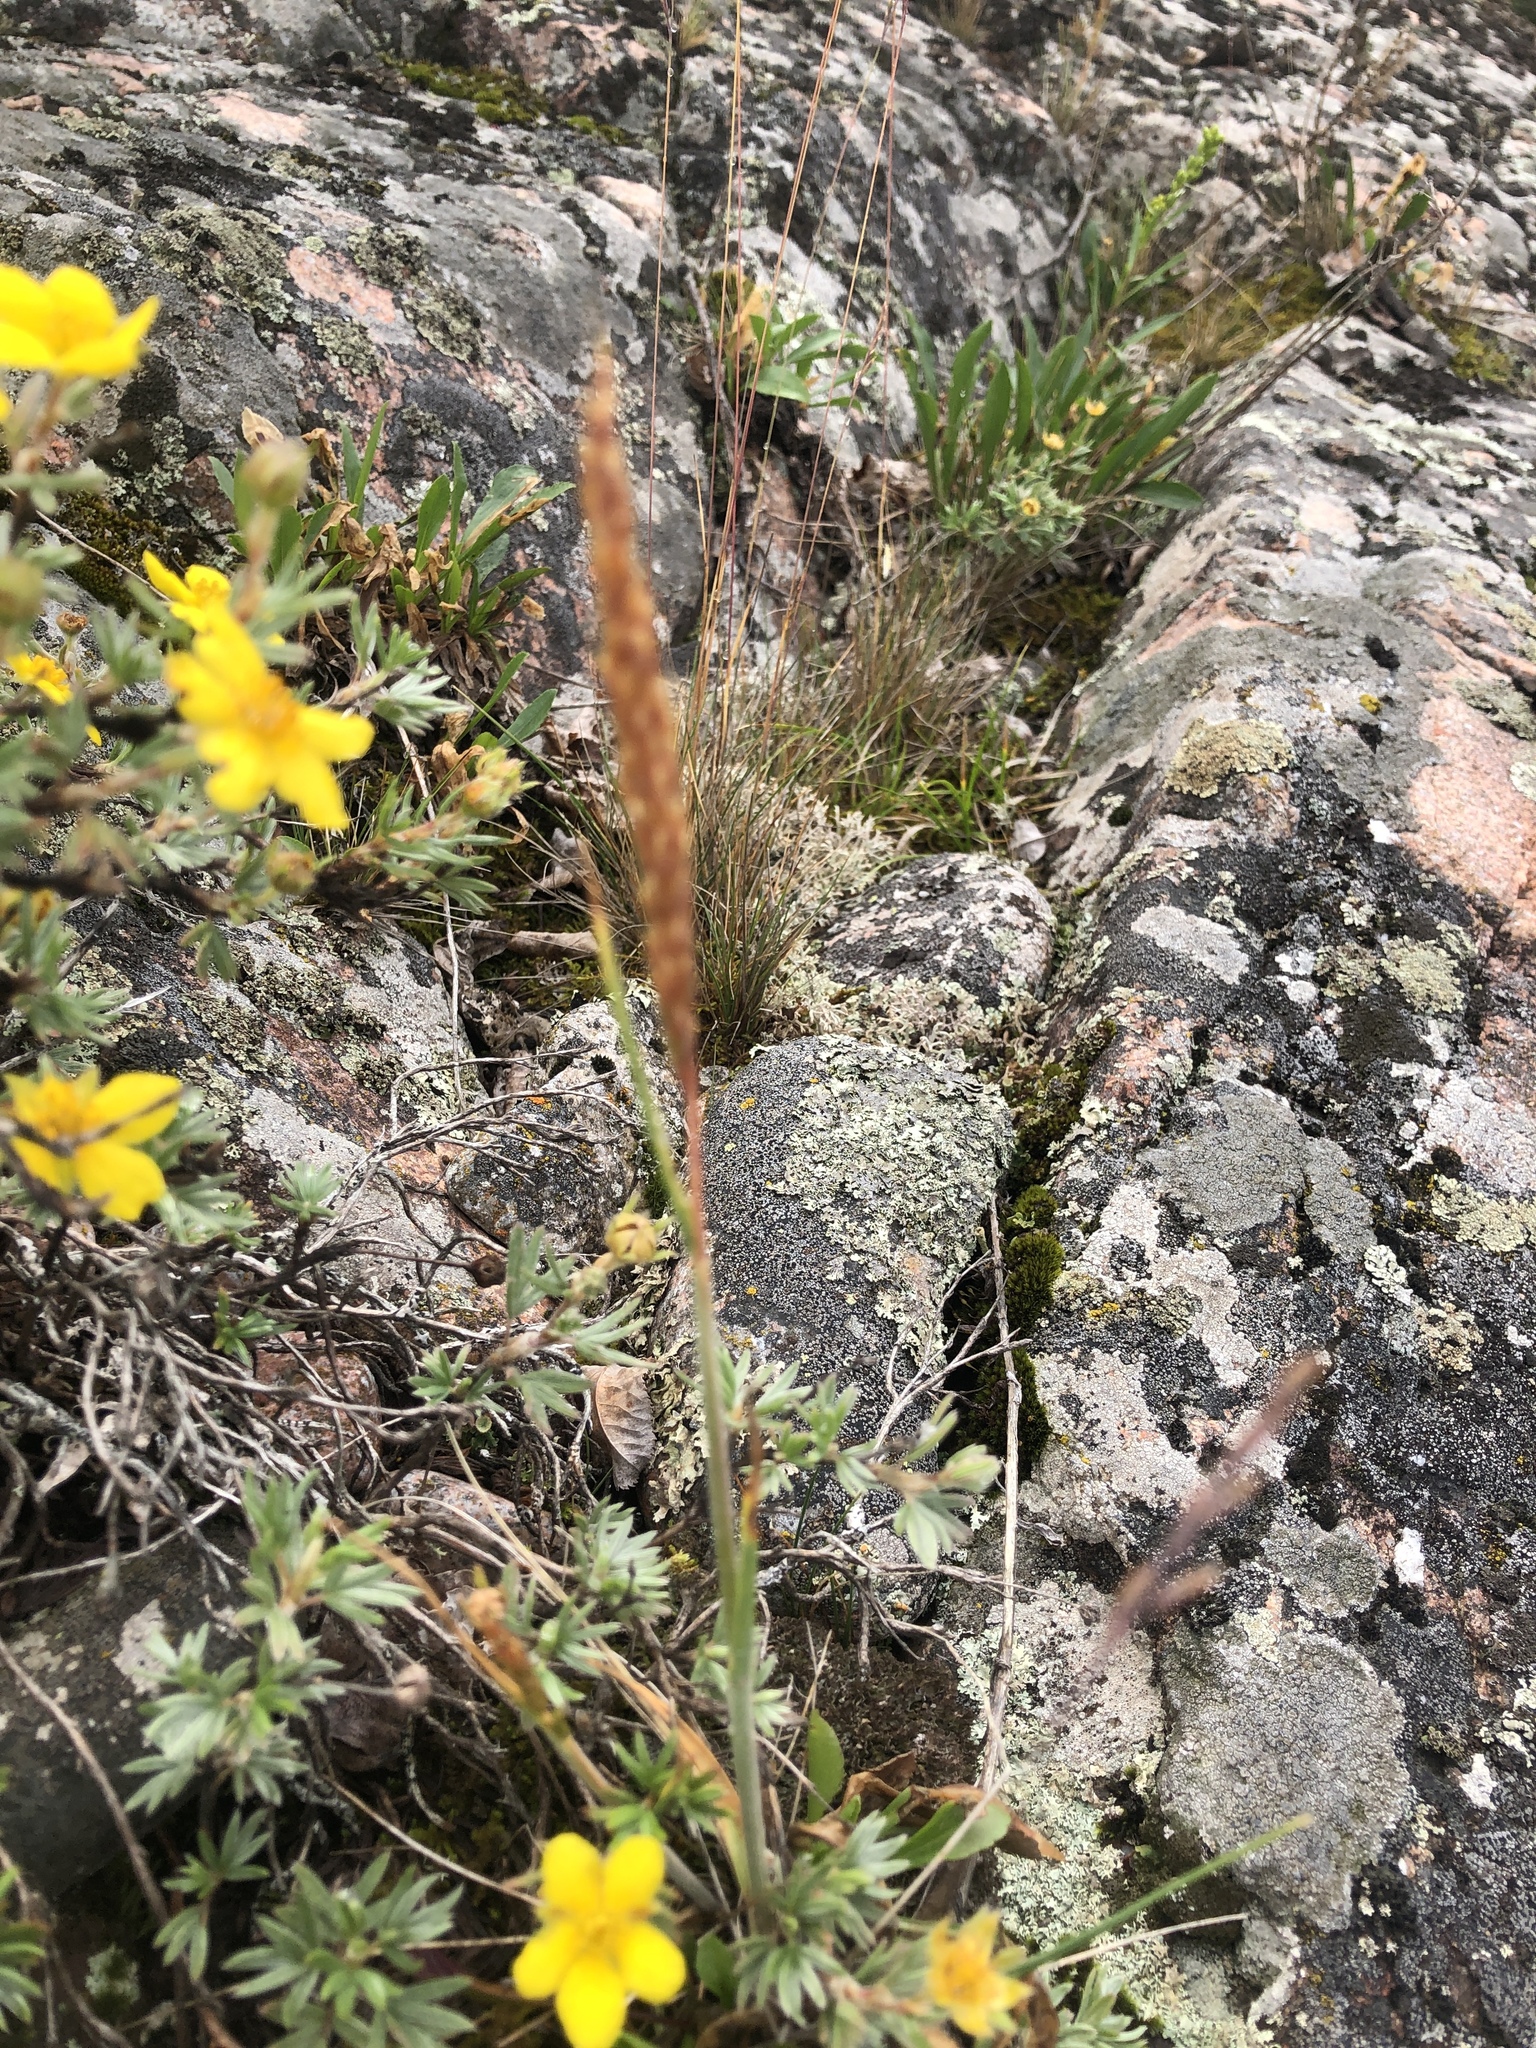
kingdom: Plantae
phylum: Tracheophyta
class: Liliopsida
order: Poales
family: Poaceae
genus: Koeleria
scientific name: Koeleria spicata
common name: Mountain trisetum
